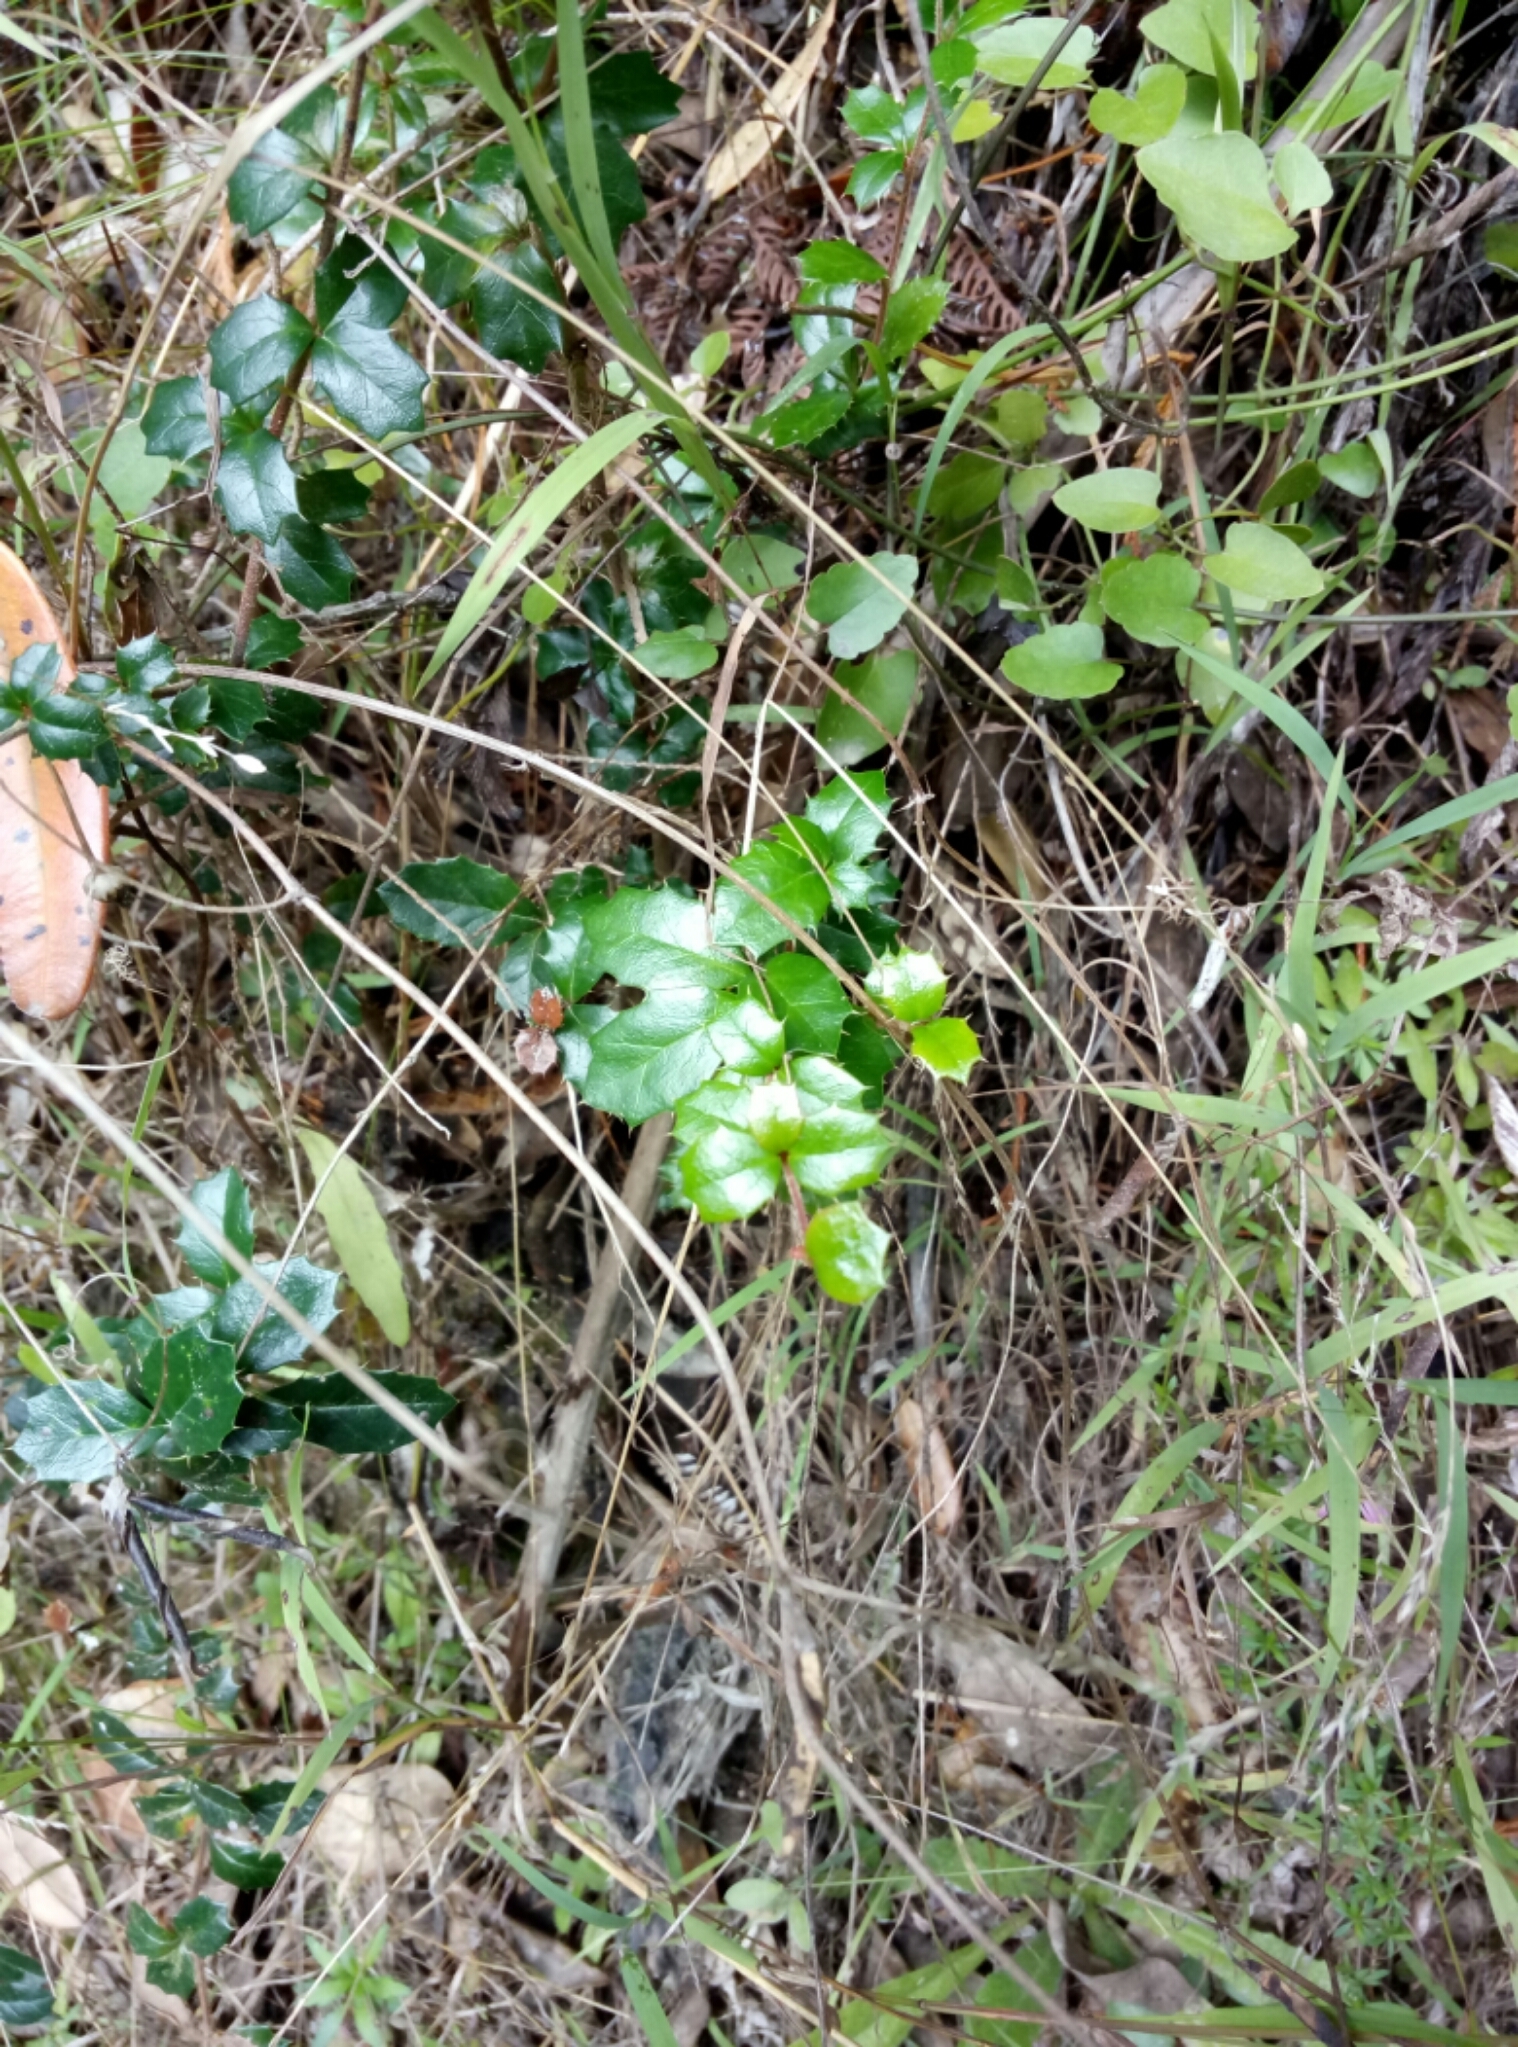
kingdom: Plantae
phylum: Tracheophyta
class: Magnoliopsida
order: Ranunculales
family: Berberidaceae
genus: Berberis
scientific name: Berberis darwinii
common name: Darwin's barberry
